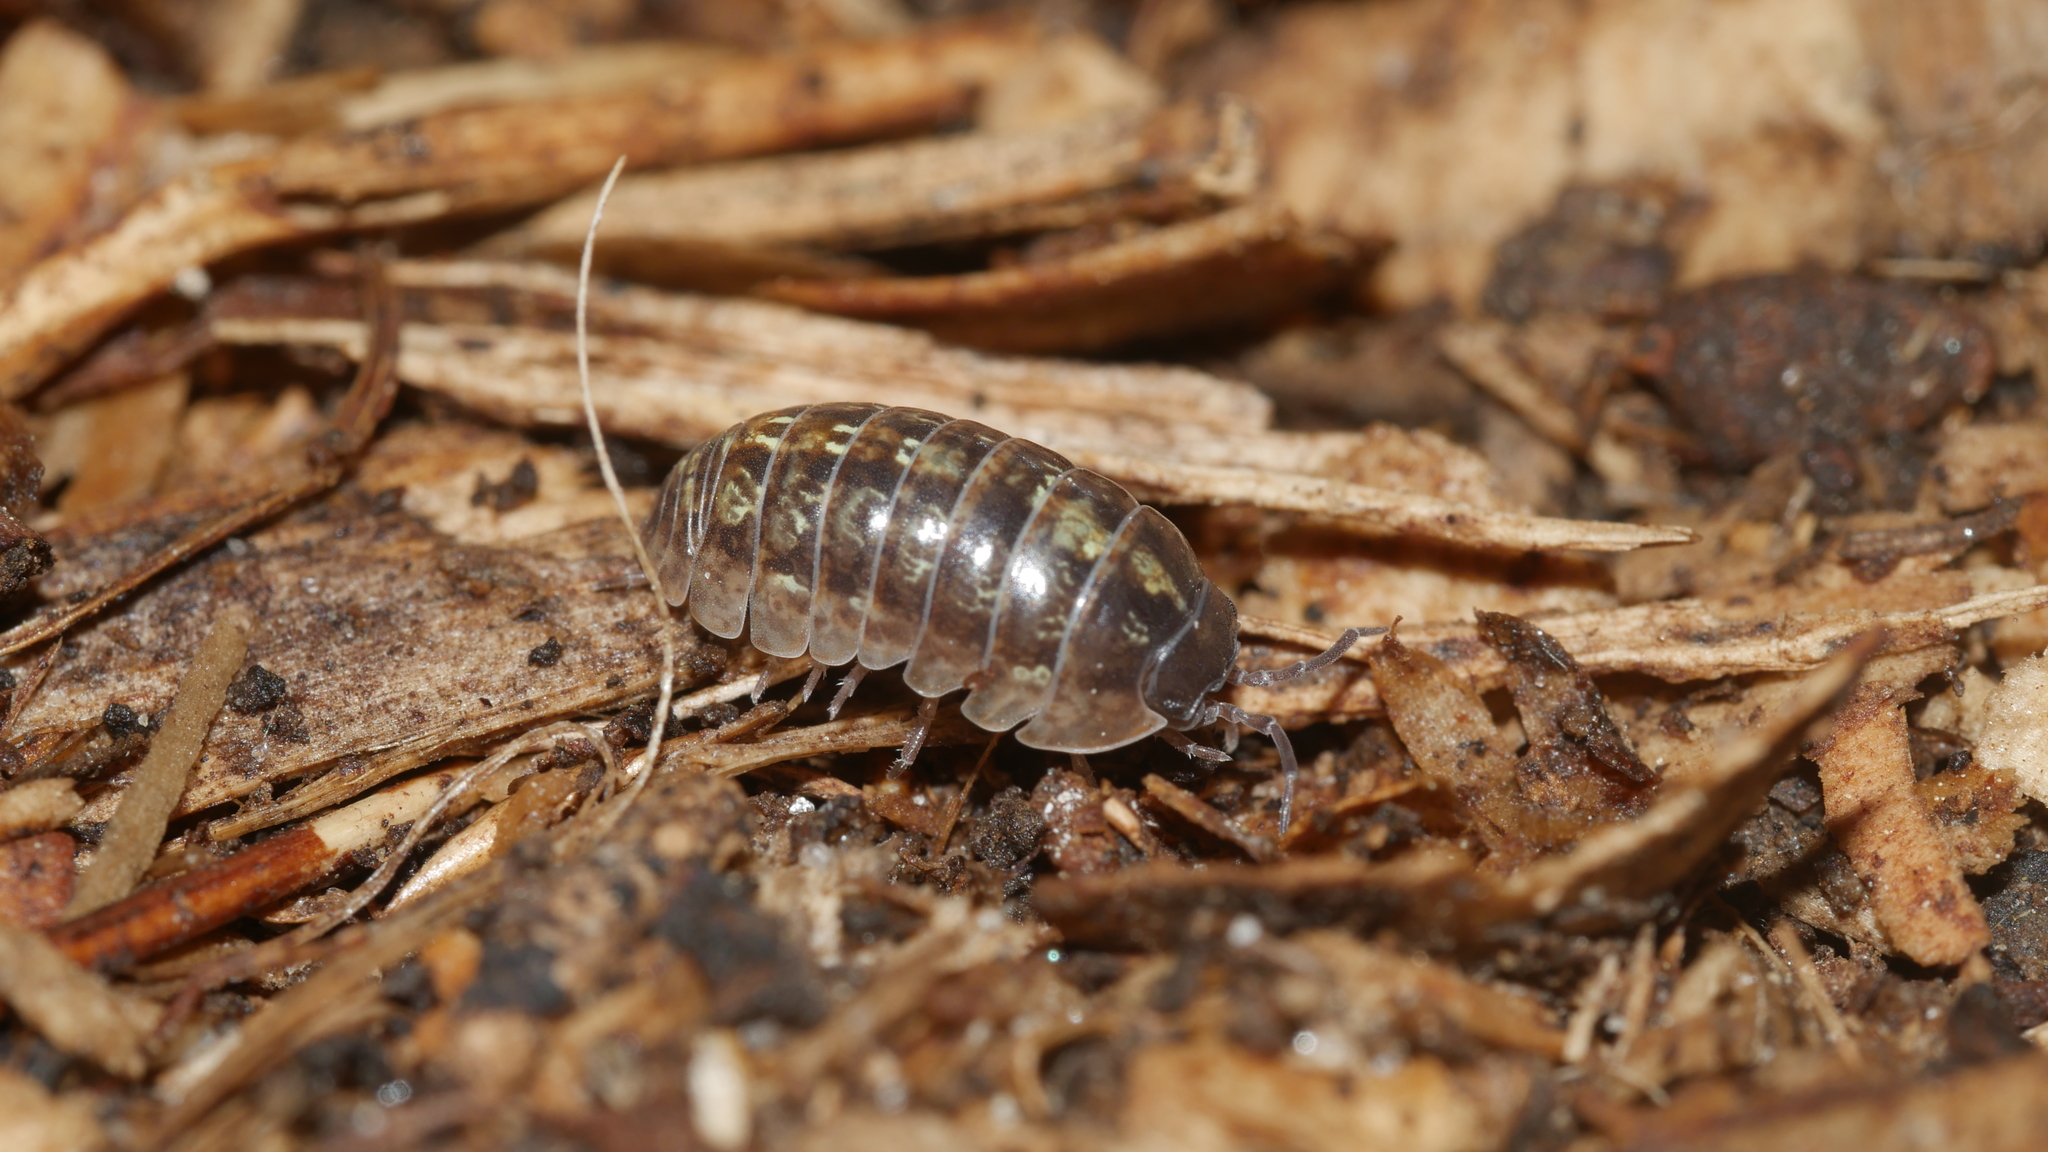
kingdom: Animalia
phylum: Arthropoda
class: Malacostraca
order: Isopoda
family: Armadillidiidae
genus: Armadillidium
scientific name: Armadillidium vulgare
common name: Common pill woodlouse
